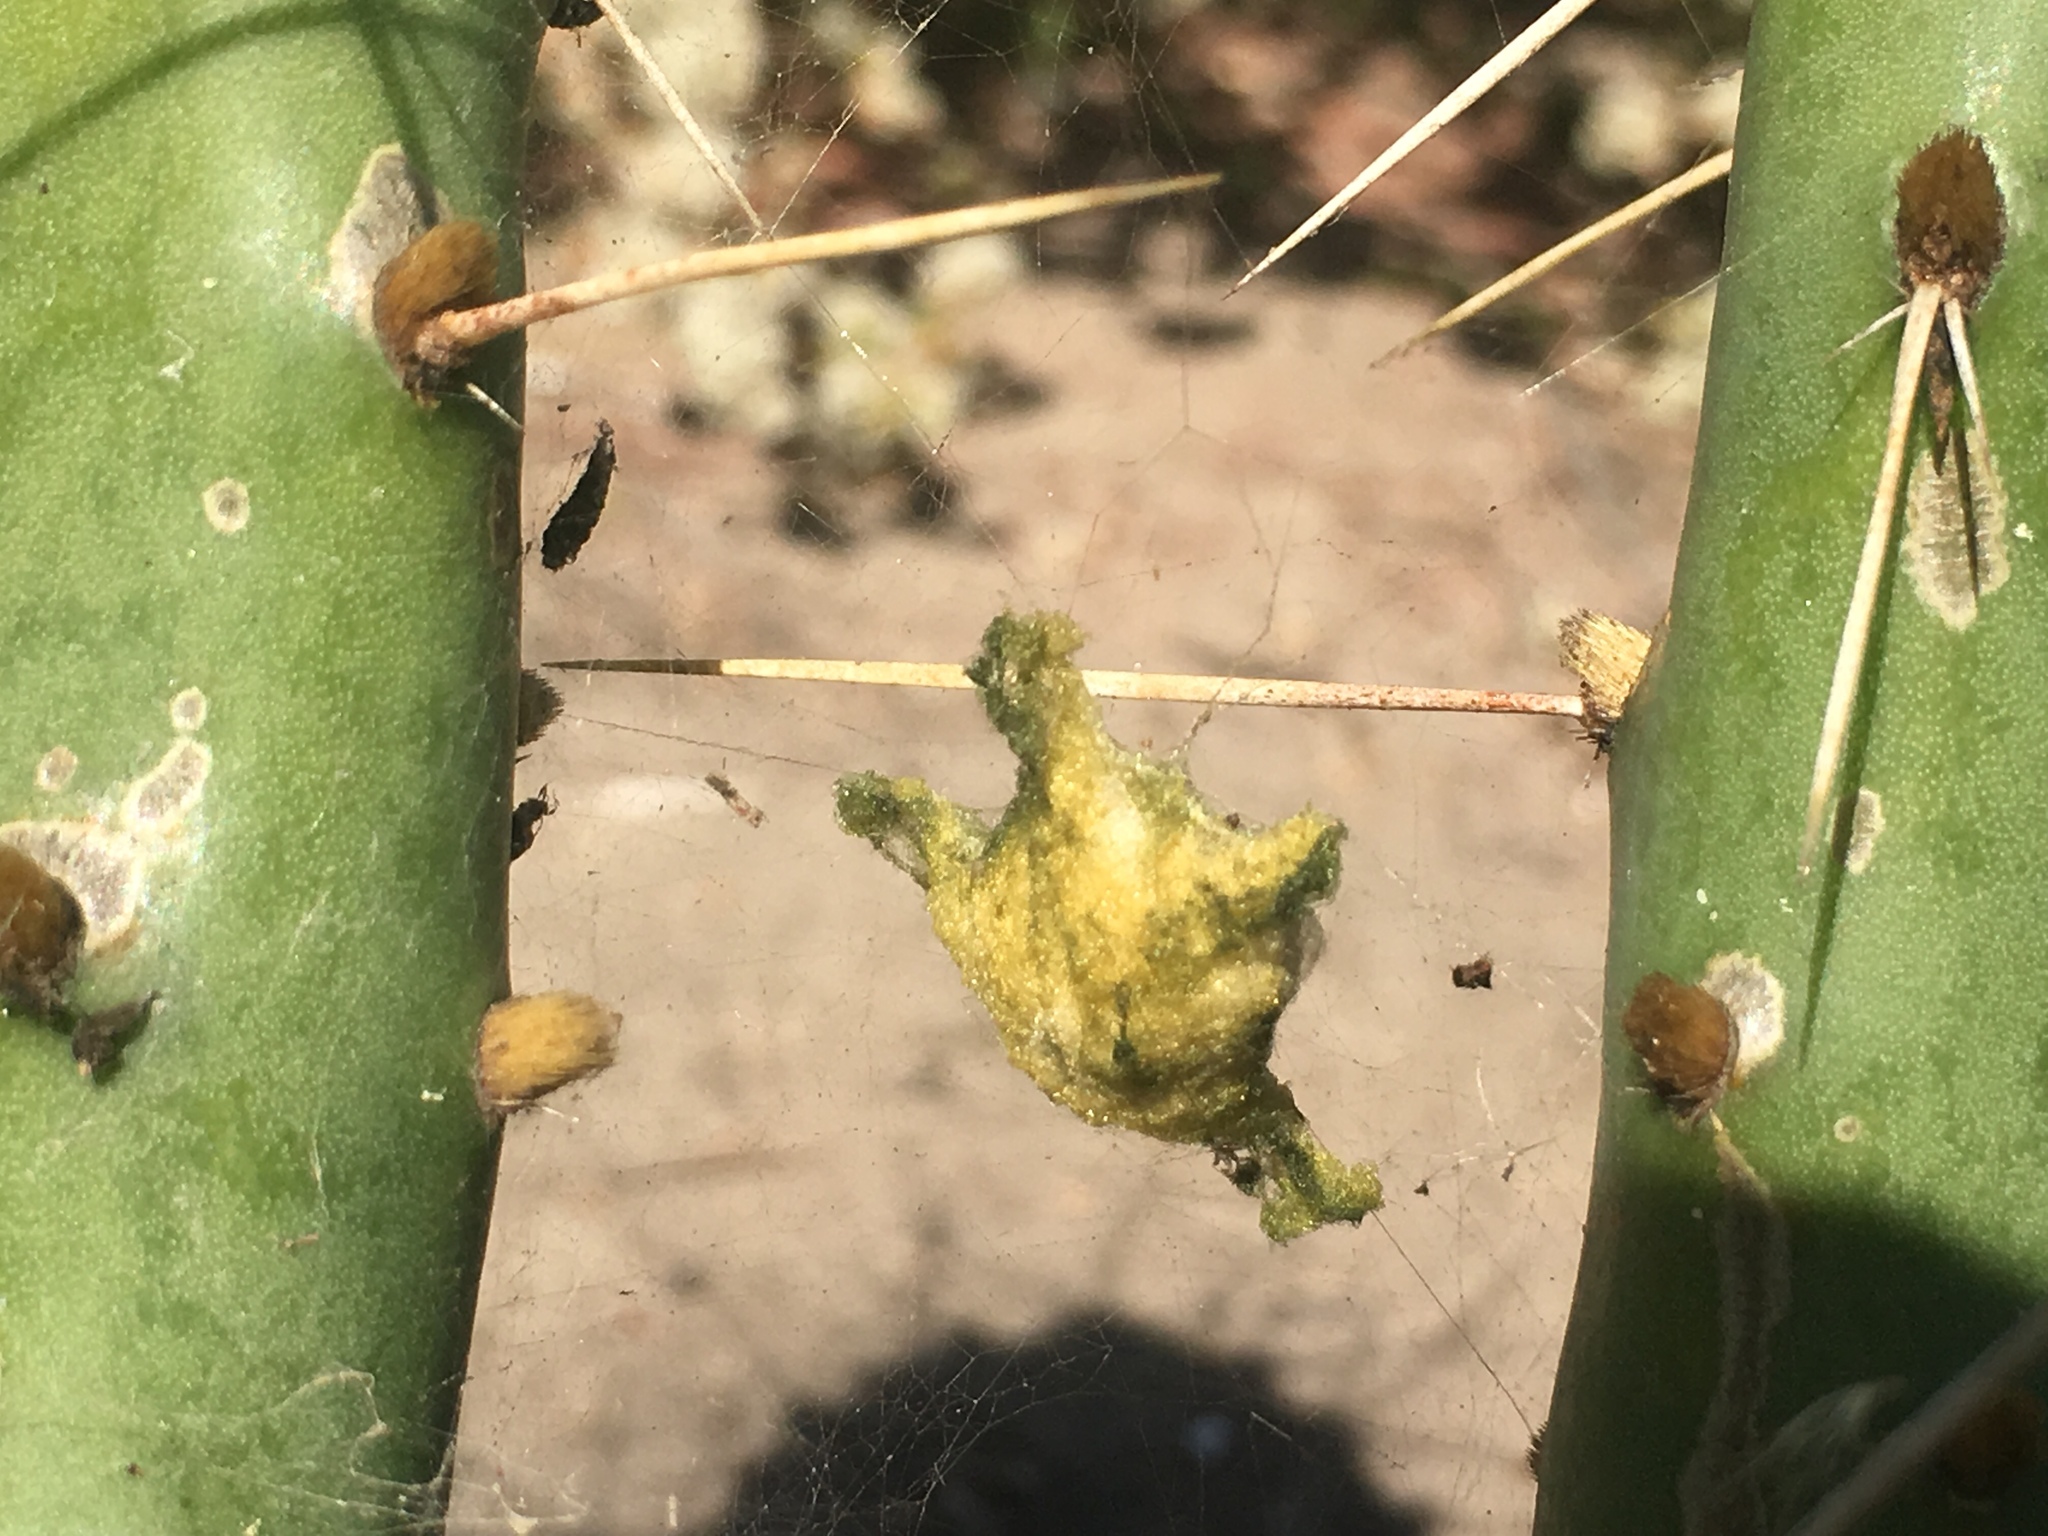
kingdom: Animalia
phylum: Arthropoda
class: Arachnida
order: Araneae
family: Araneidae
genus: Argiope
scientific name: Argiope argentata
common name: Orb weavers
